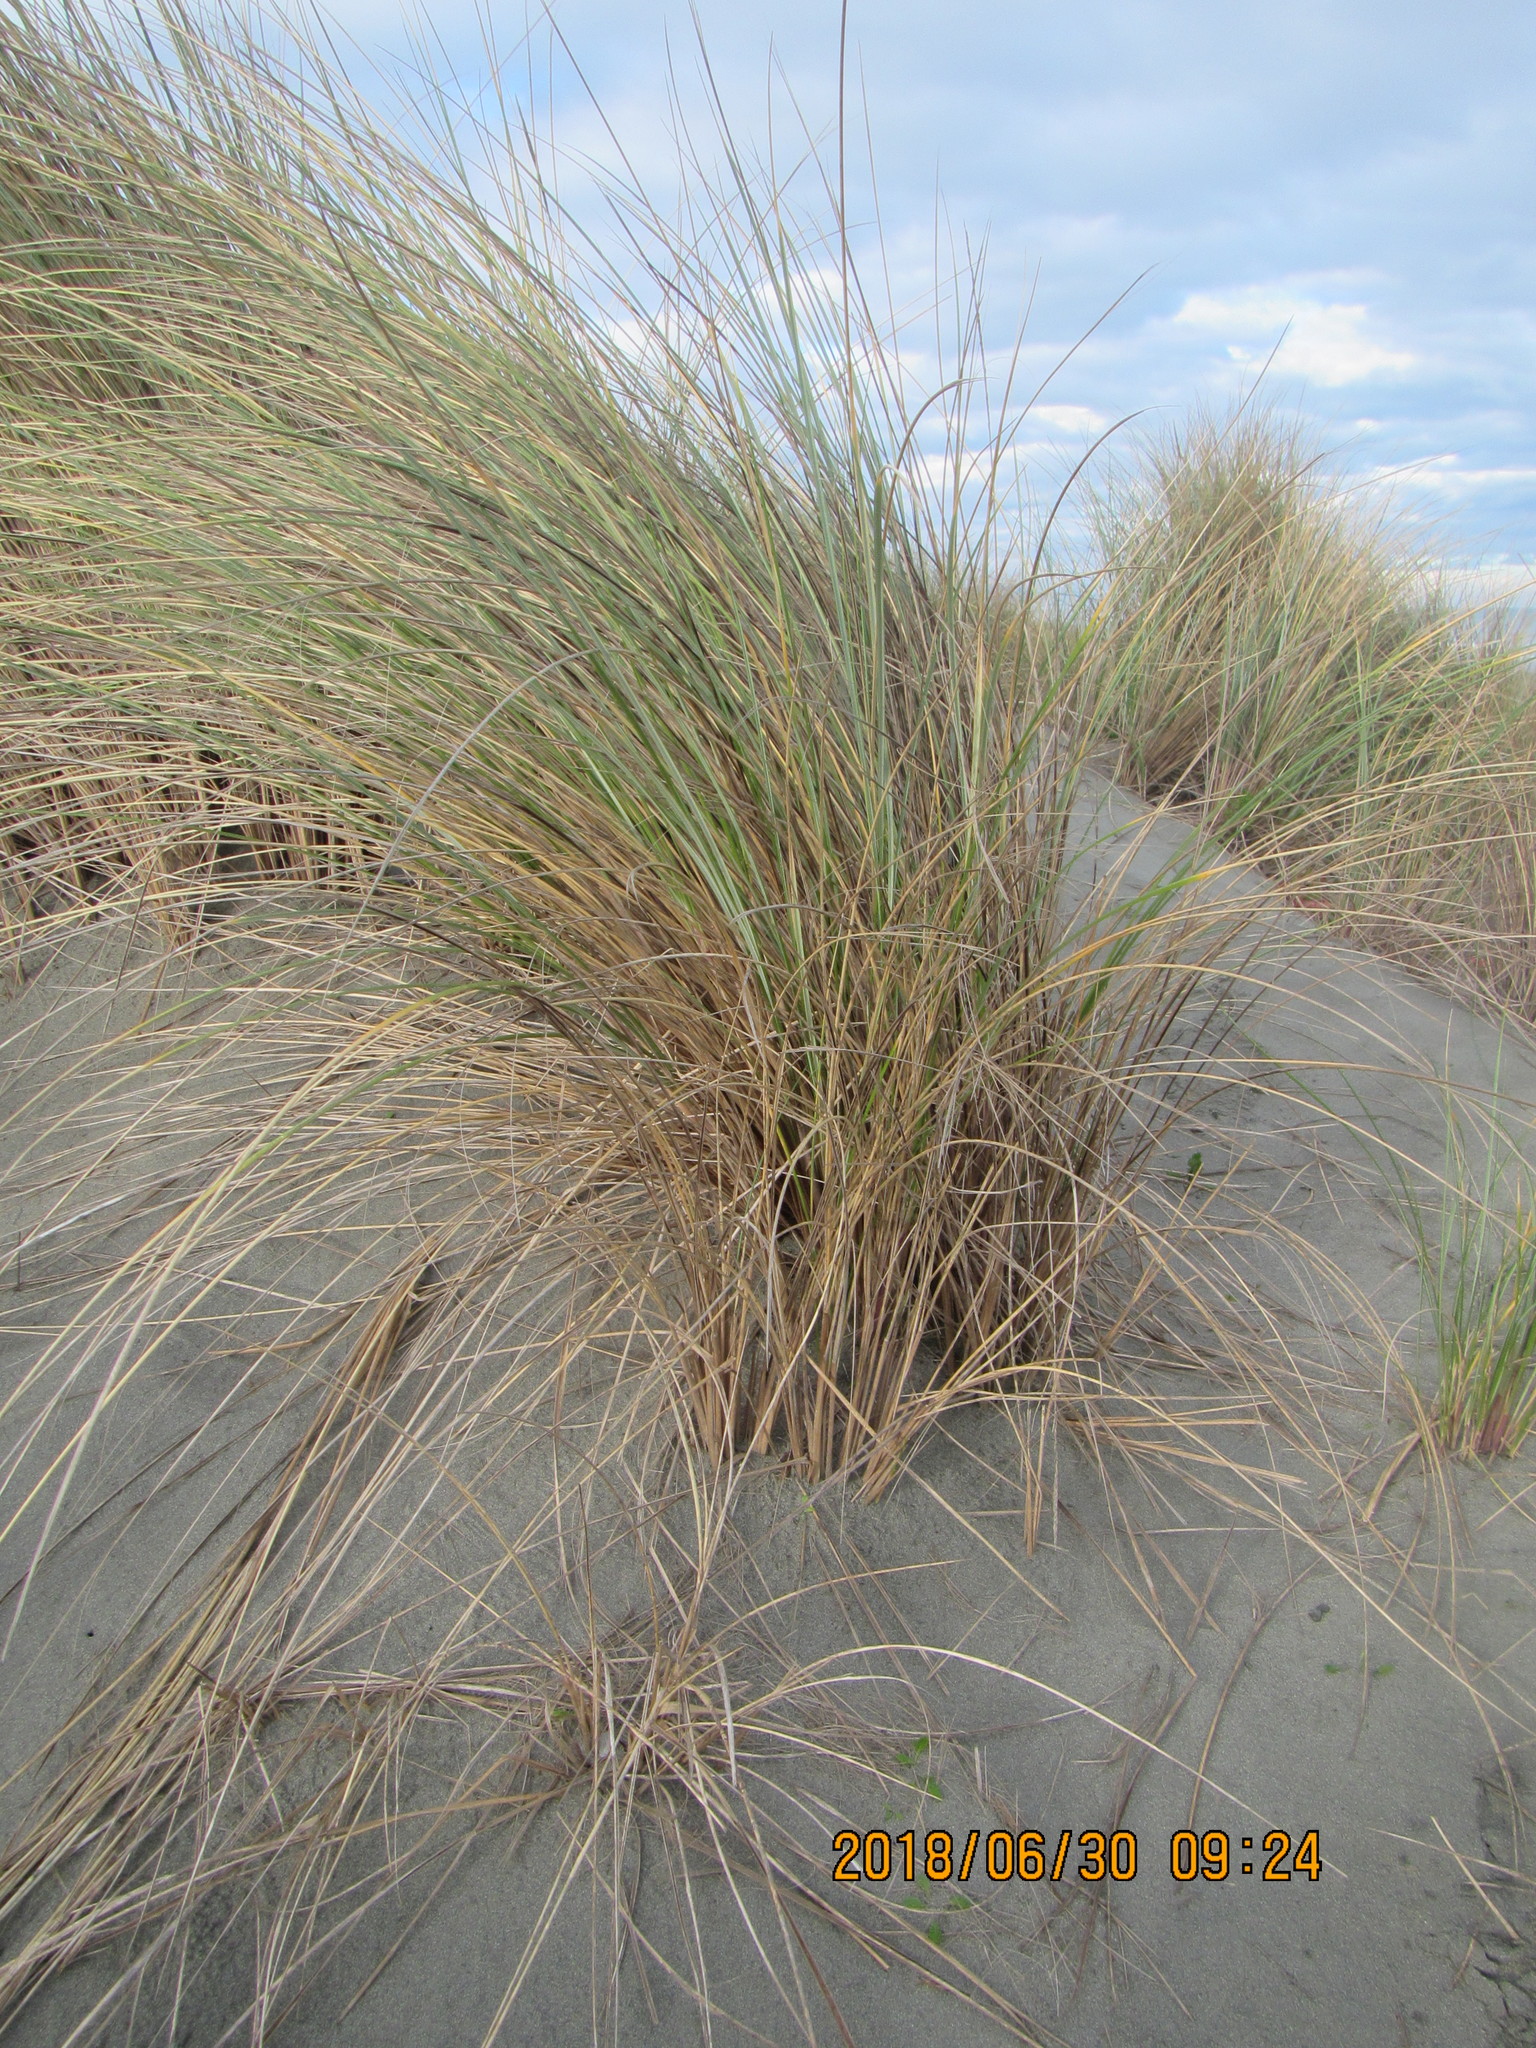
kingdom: Plantae
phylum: Tracheophyta
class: Liliopsida
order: Poales
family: Poaceae
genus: Calamagrostis
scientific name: Calamagrostis arenaria
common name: European beachgrass
